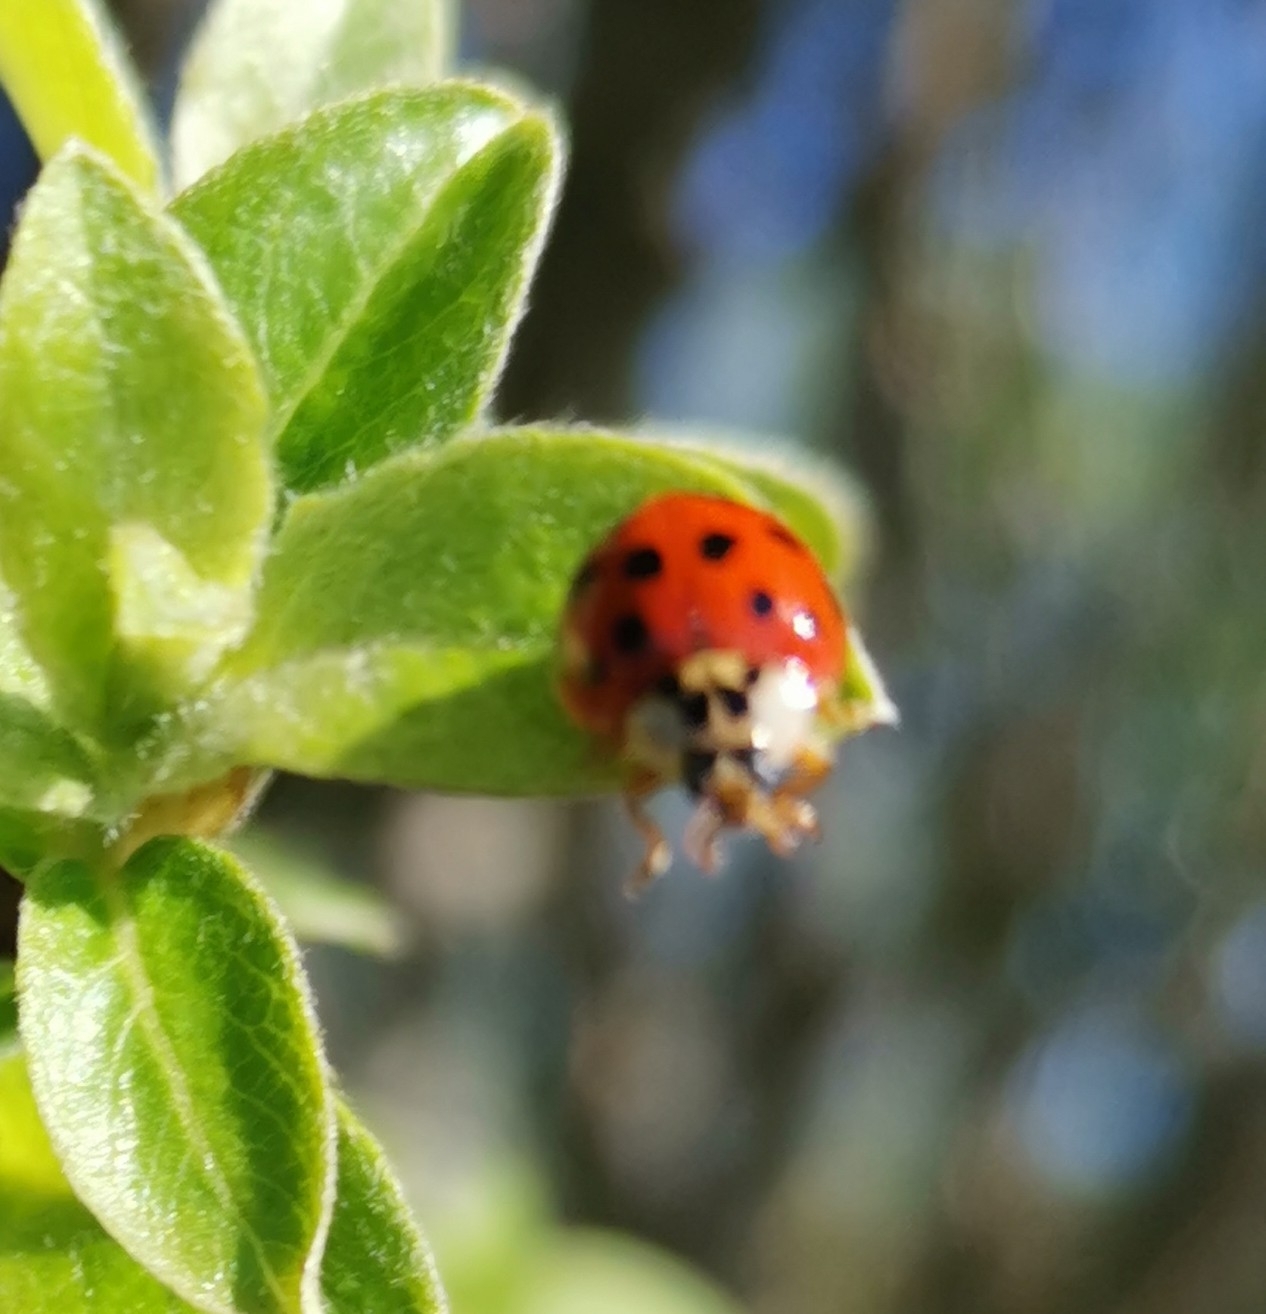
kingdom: Animalia
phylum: Arthropoda
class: Insecta
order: Coleoptera
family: Coccinellidae
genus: Harmonia
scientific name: Harmonia axyridis
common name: Harlequin ladybird
